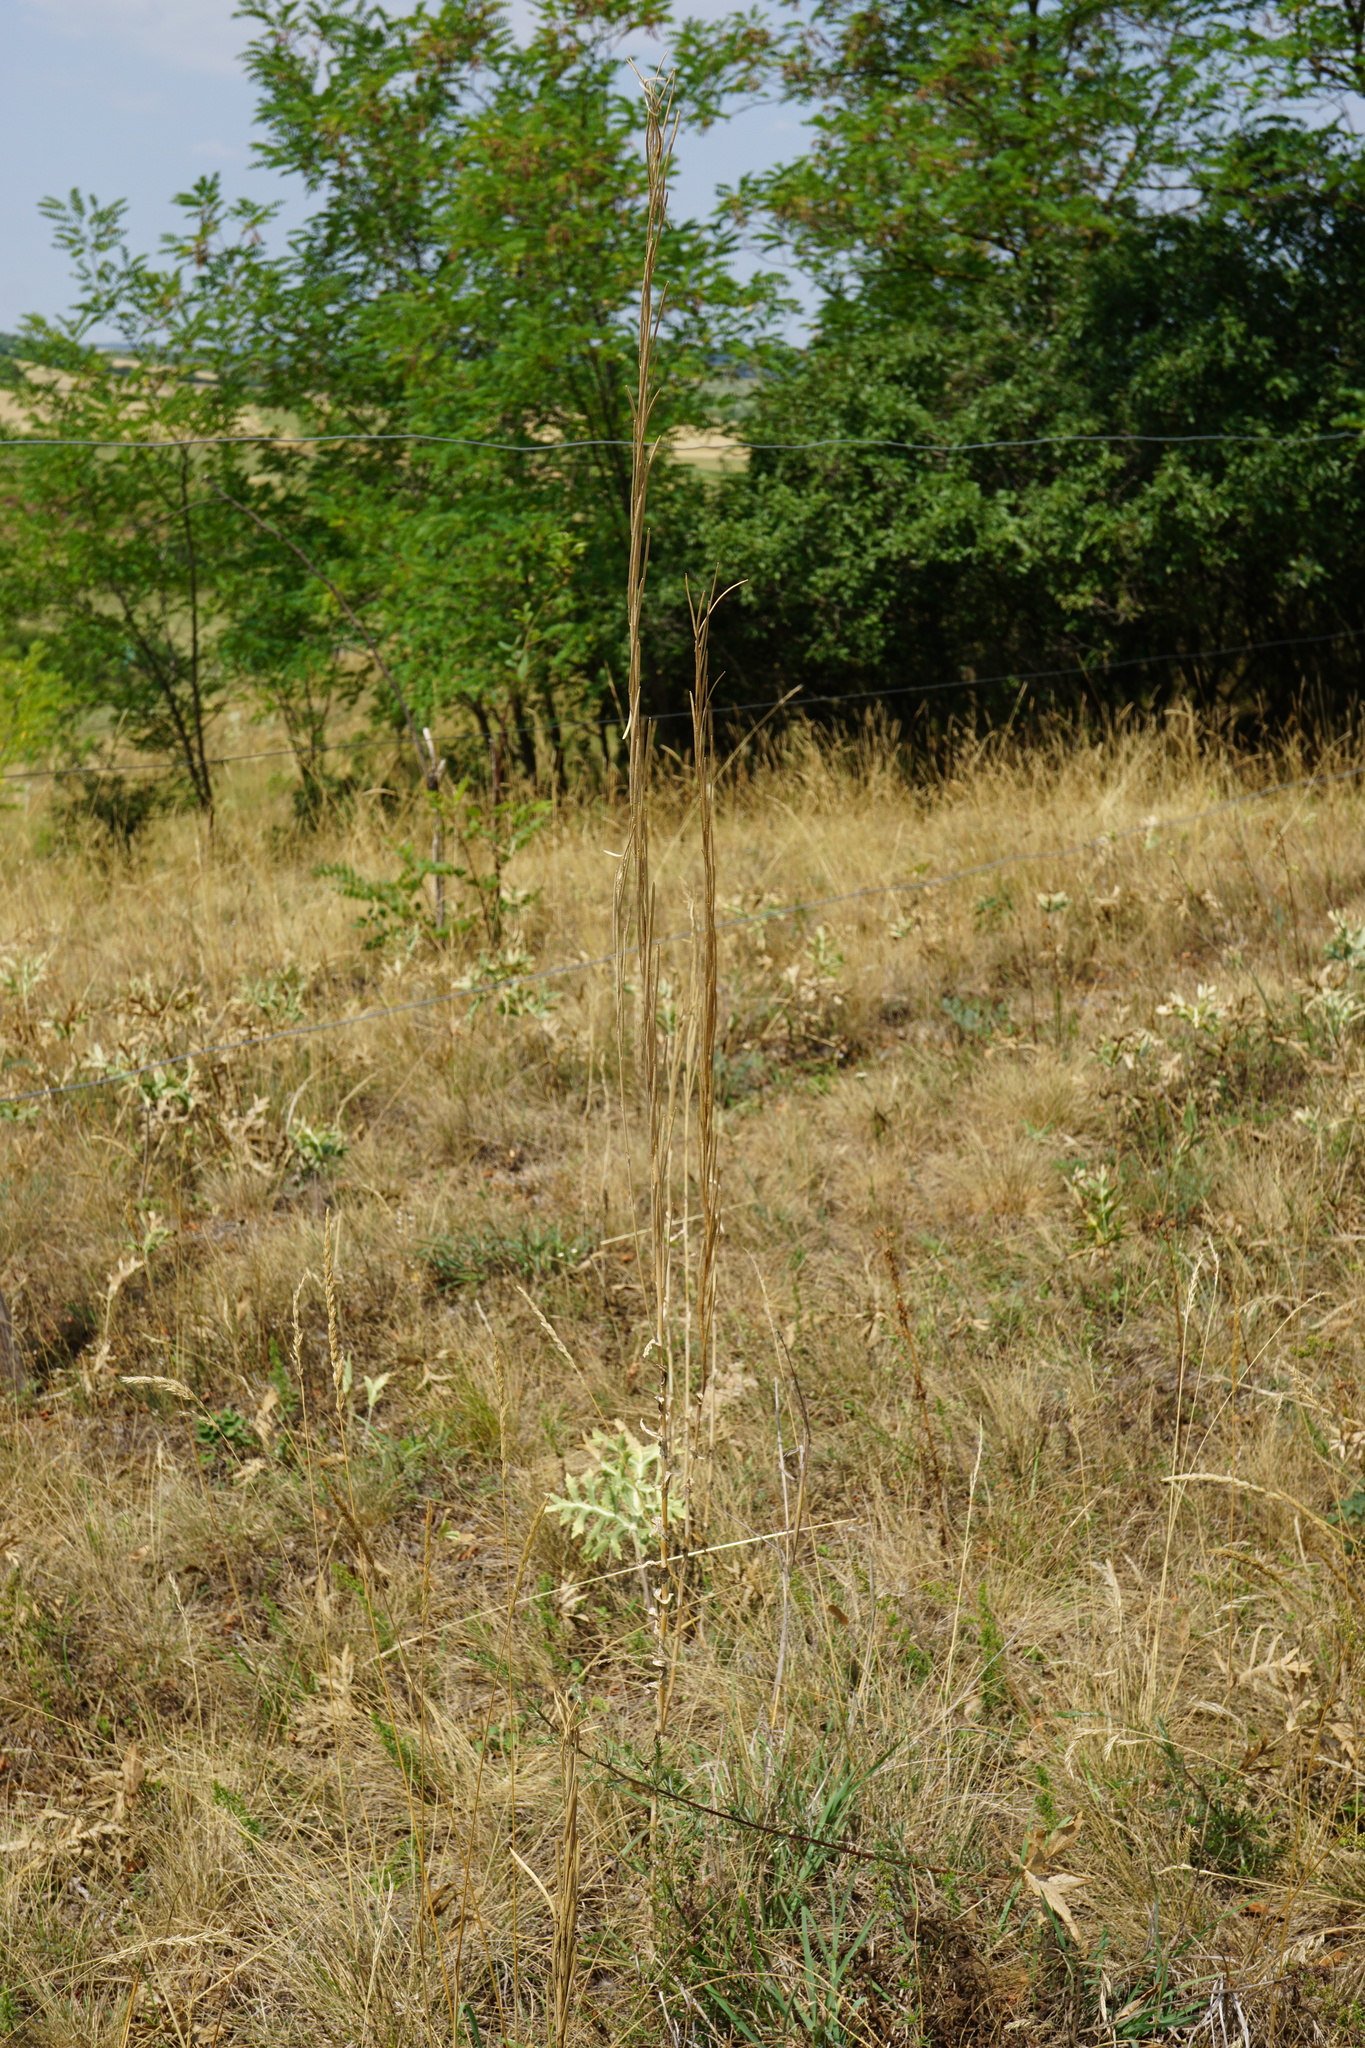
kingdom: Plantae
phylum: Tracheophyta
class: Magnoliopsida
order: Brassicales
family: Brassicaceae
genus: Turritis
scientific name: Turritis glabra
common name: Tower rockcress
